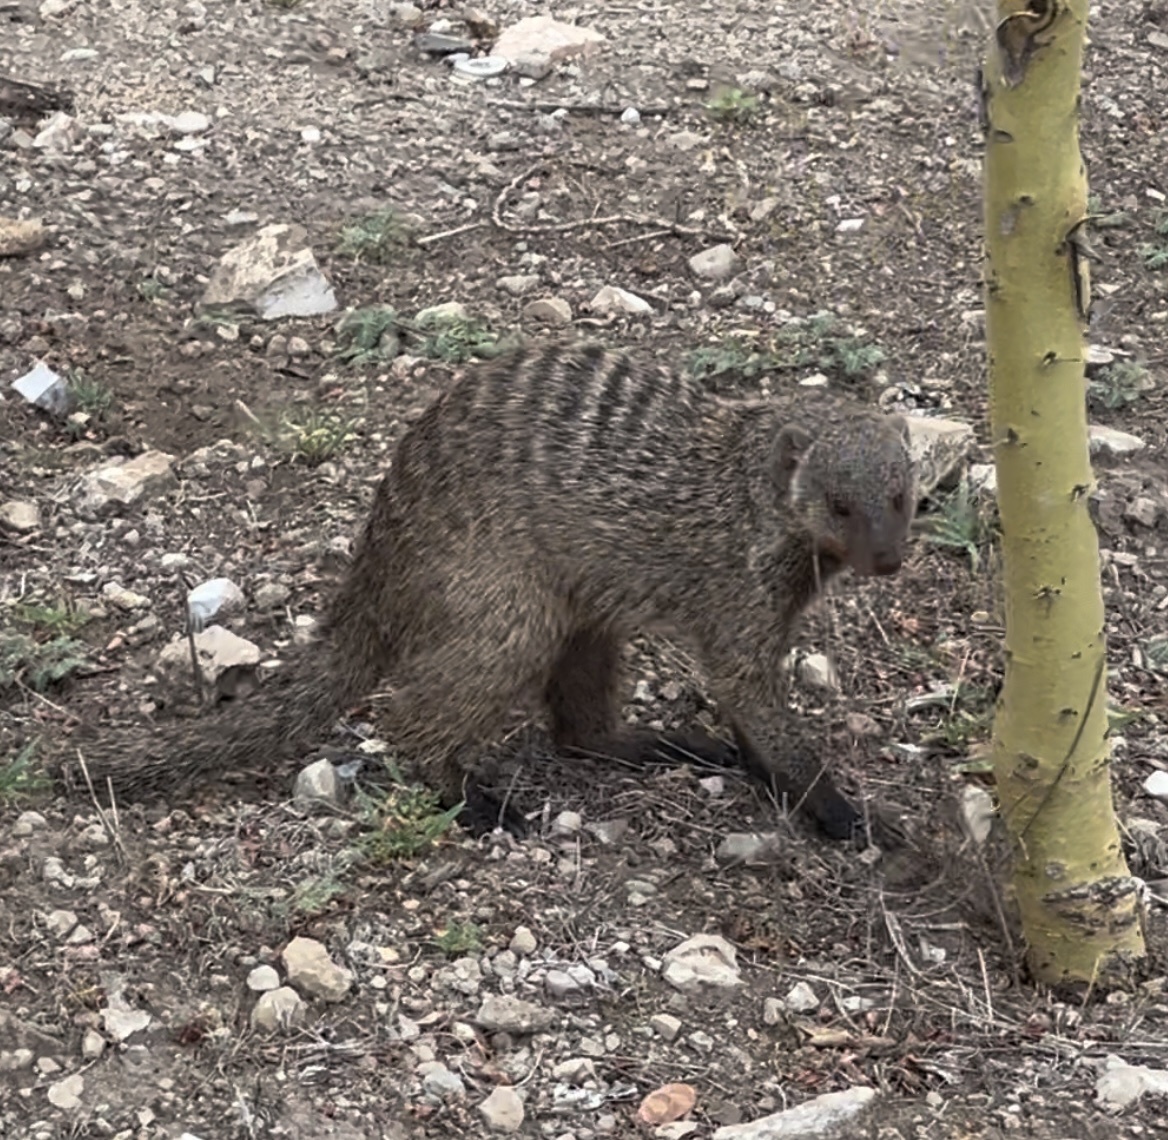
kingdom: Animalia
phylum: Chordata
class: Mammalia
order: Carnivora
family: Herpestidae
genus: Mungos
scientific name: Mungos mungo
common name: Banded mongoose
